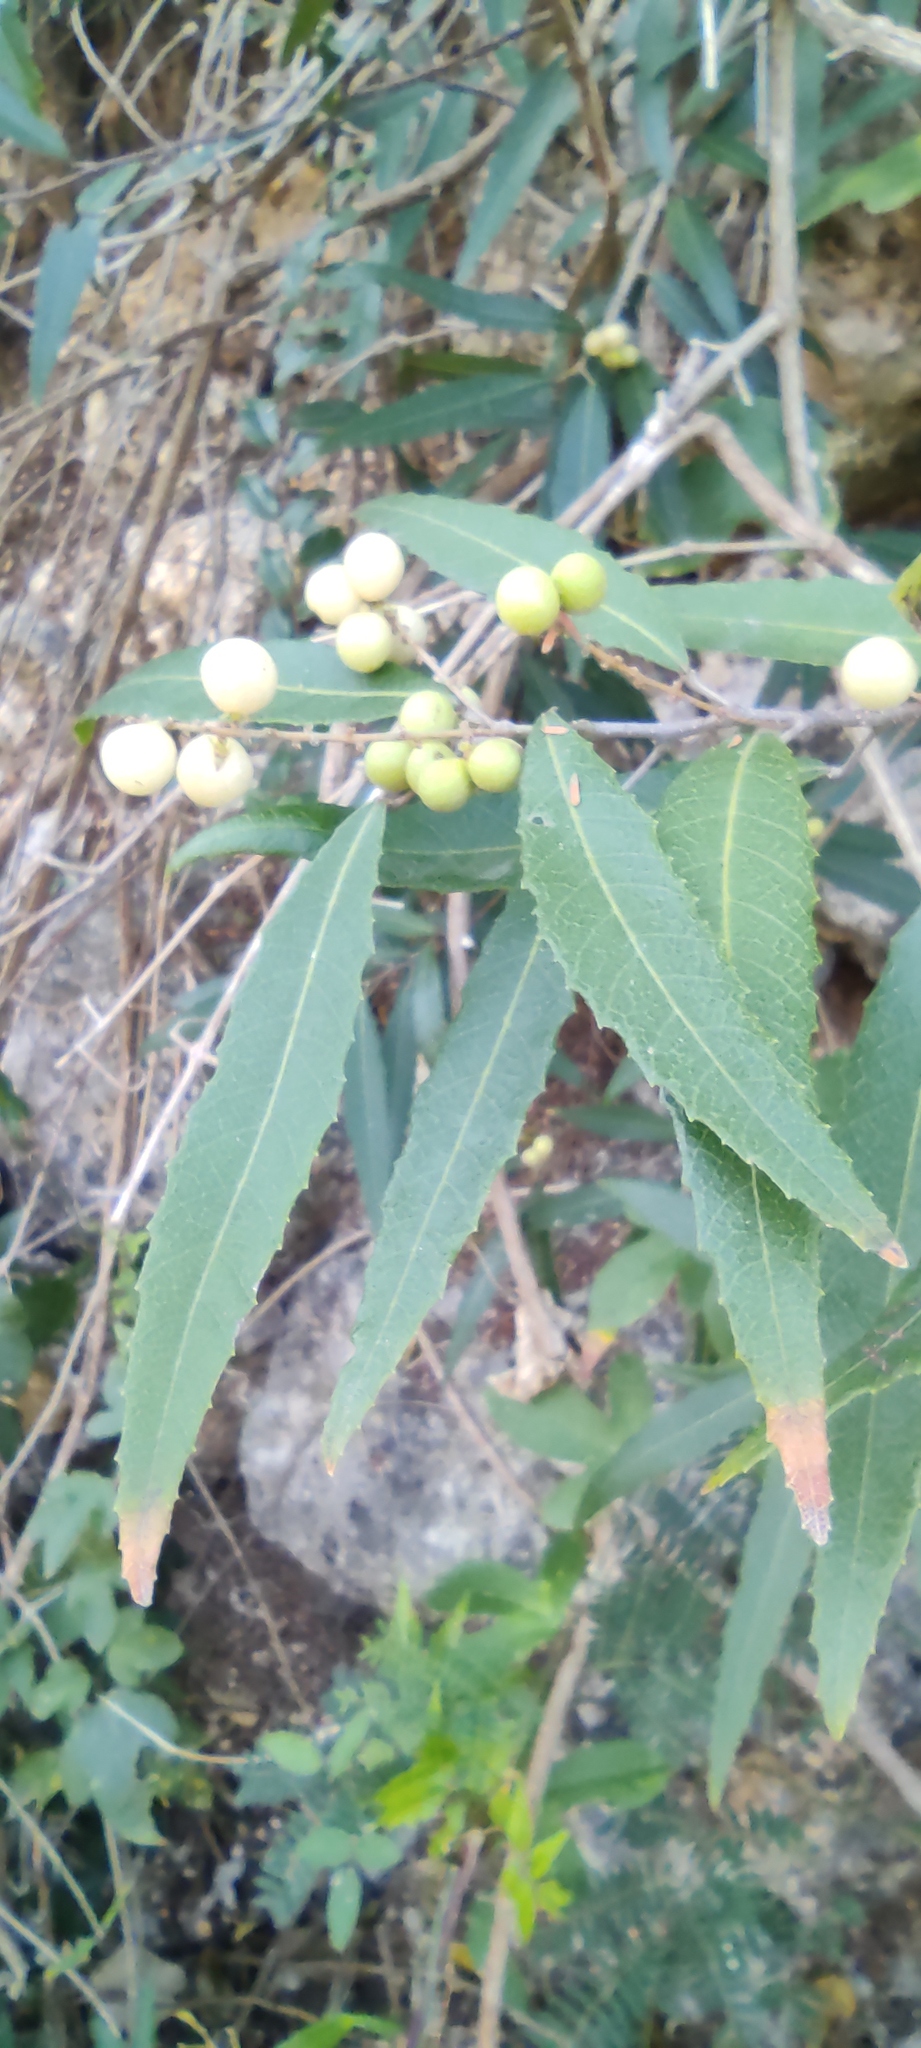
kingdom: Plantae
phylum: Tracheophyta
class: Magnoliopsida
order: Sapindales
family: Sapindaceae
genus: Allophylus
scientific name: Allophylus rigidus
